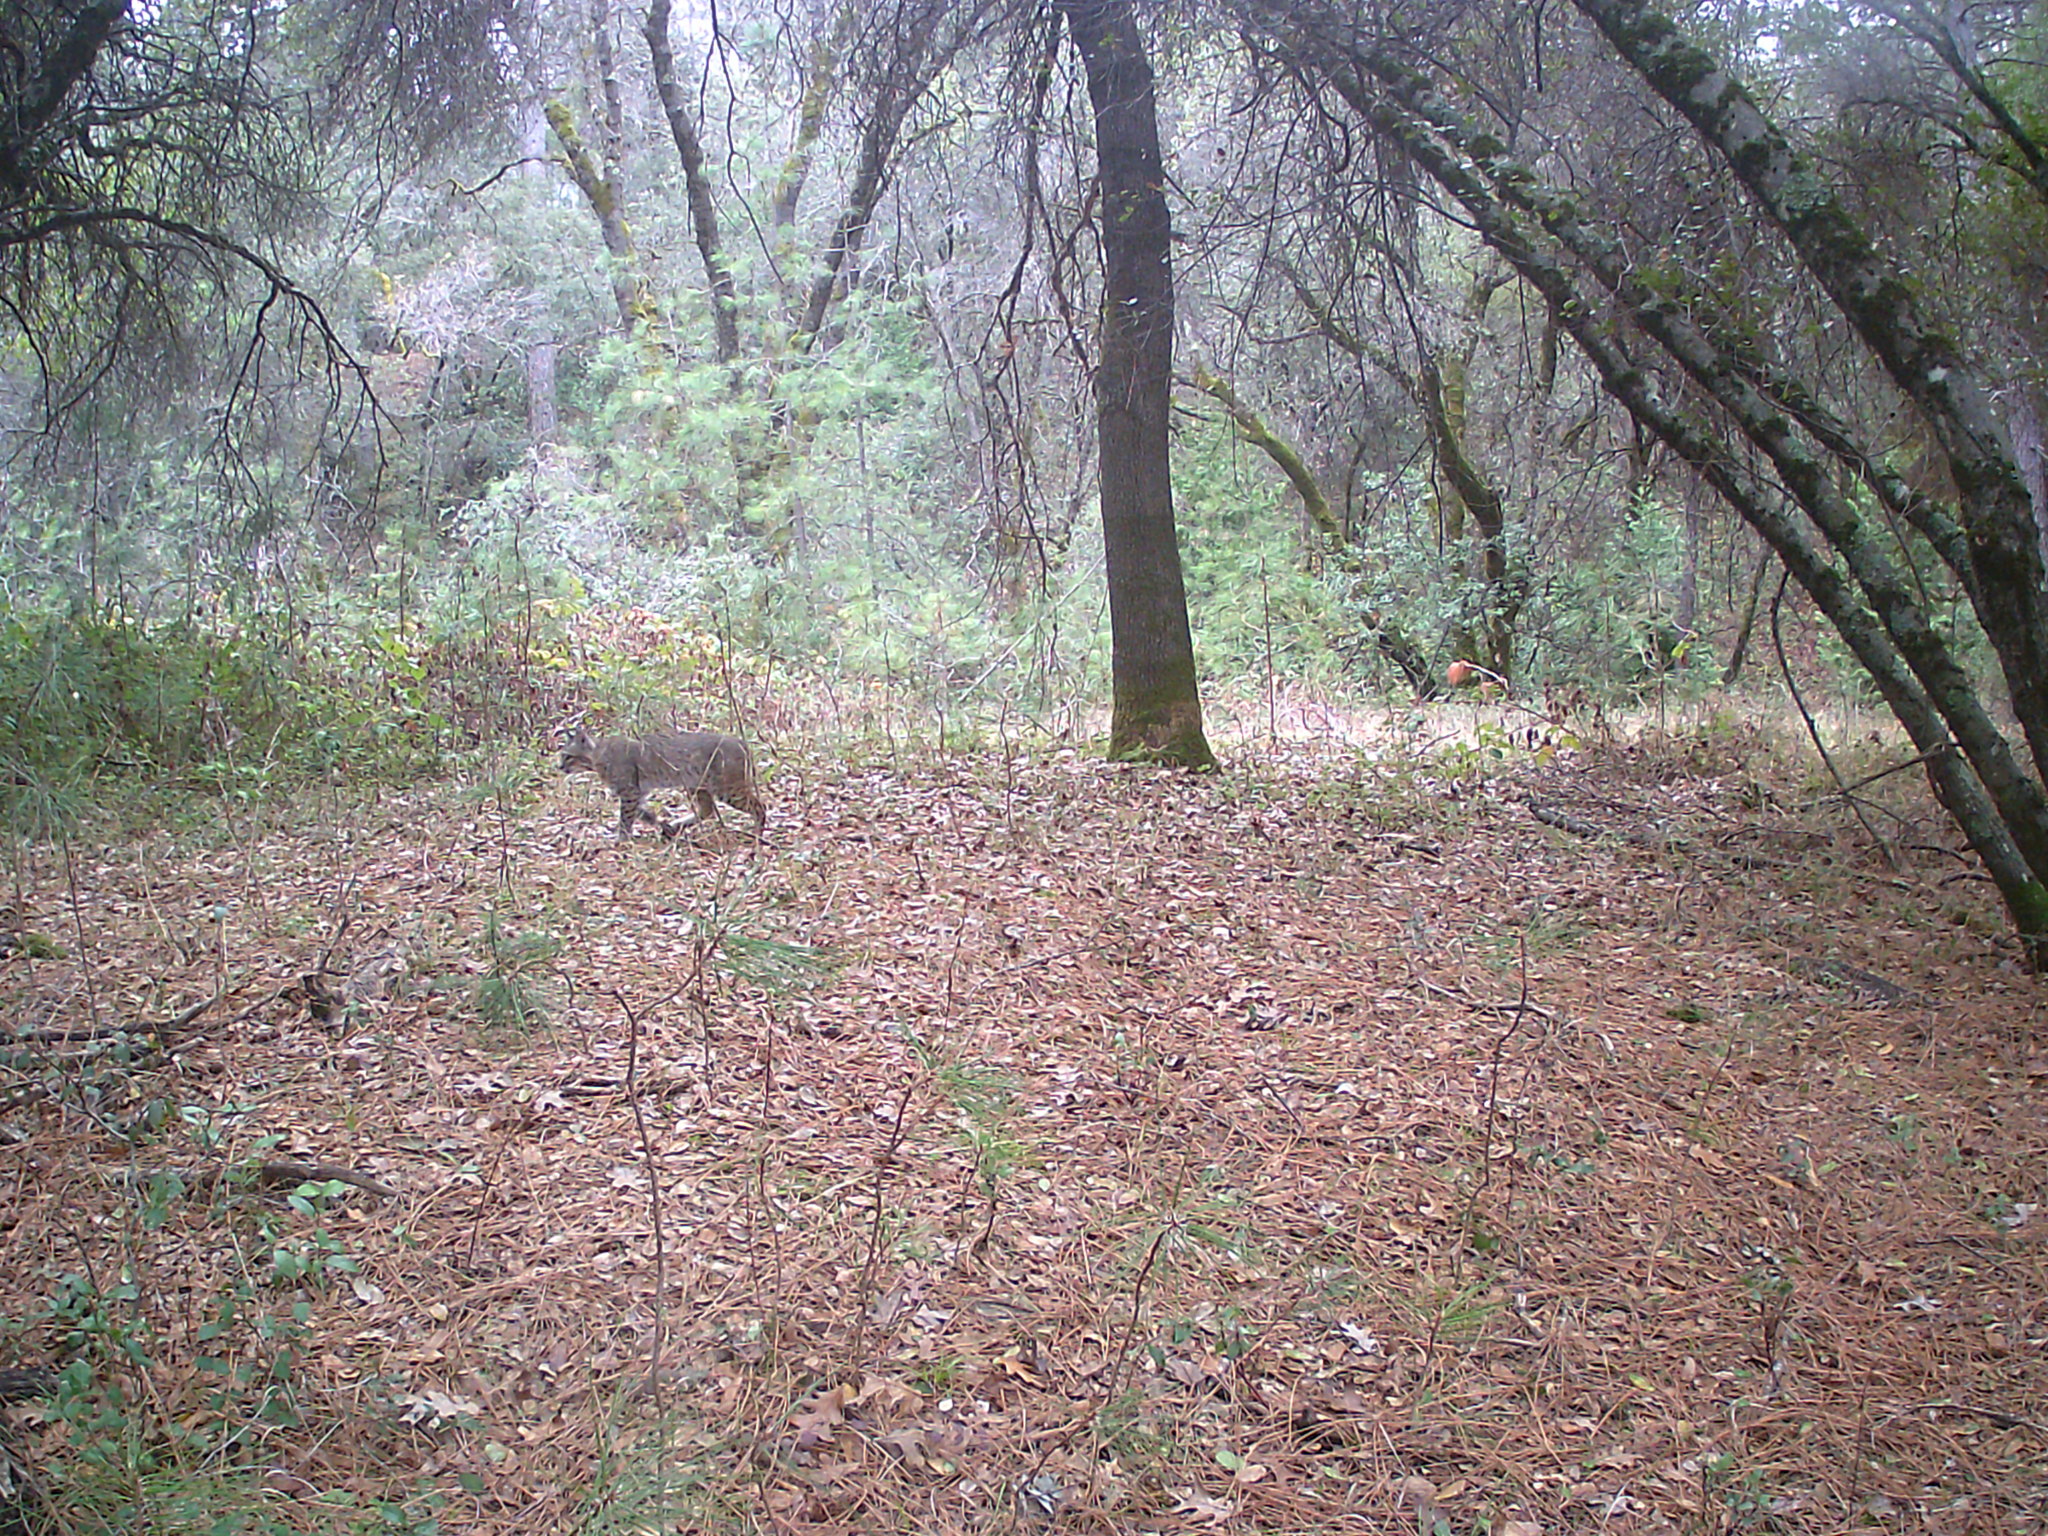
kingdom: Animalia
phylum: Chordata
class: Mammalia
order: Carnivora
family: Felidae
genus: Lynx
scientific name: Lynx rufus
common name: Bobcat
